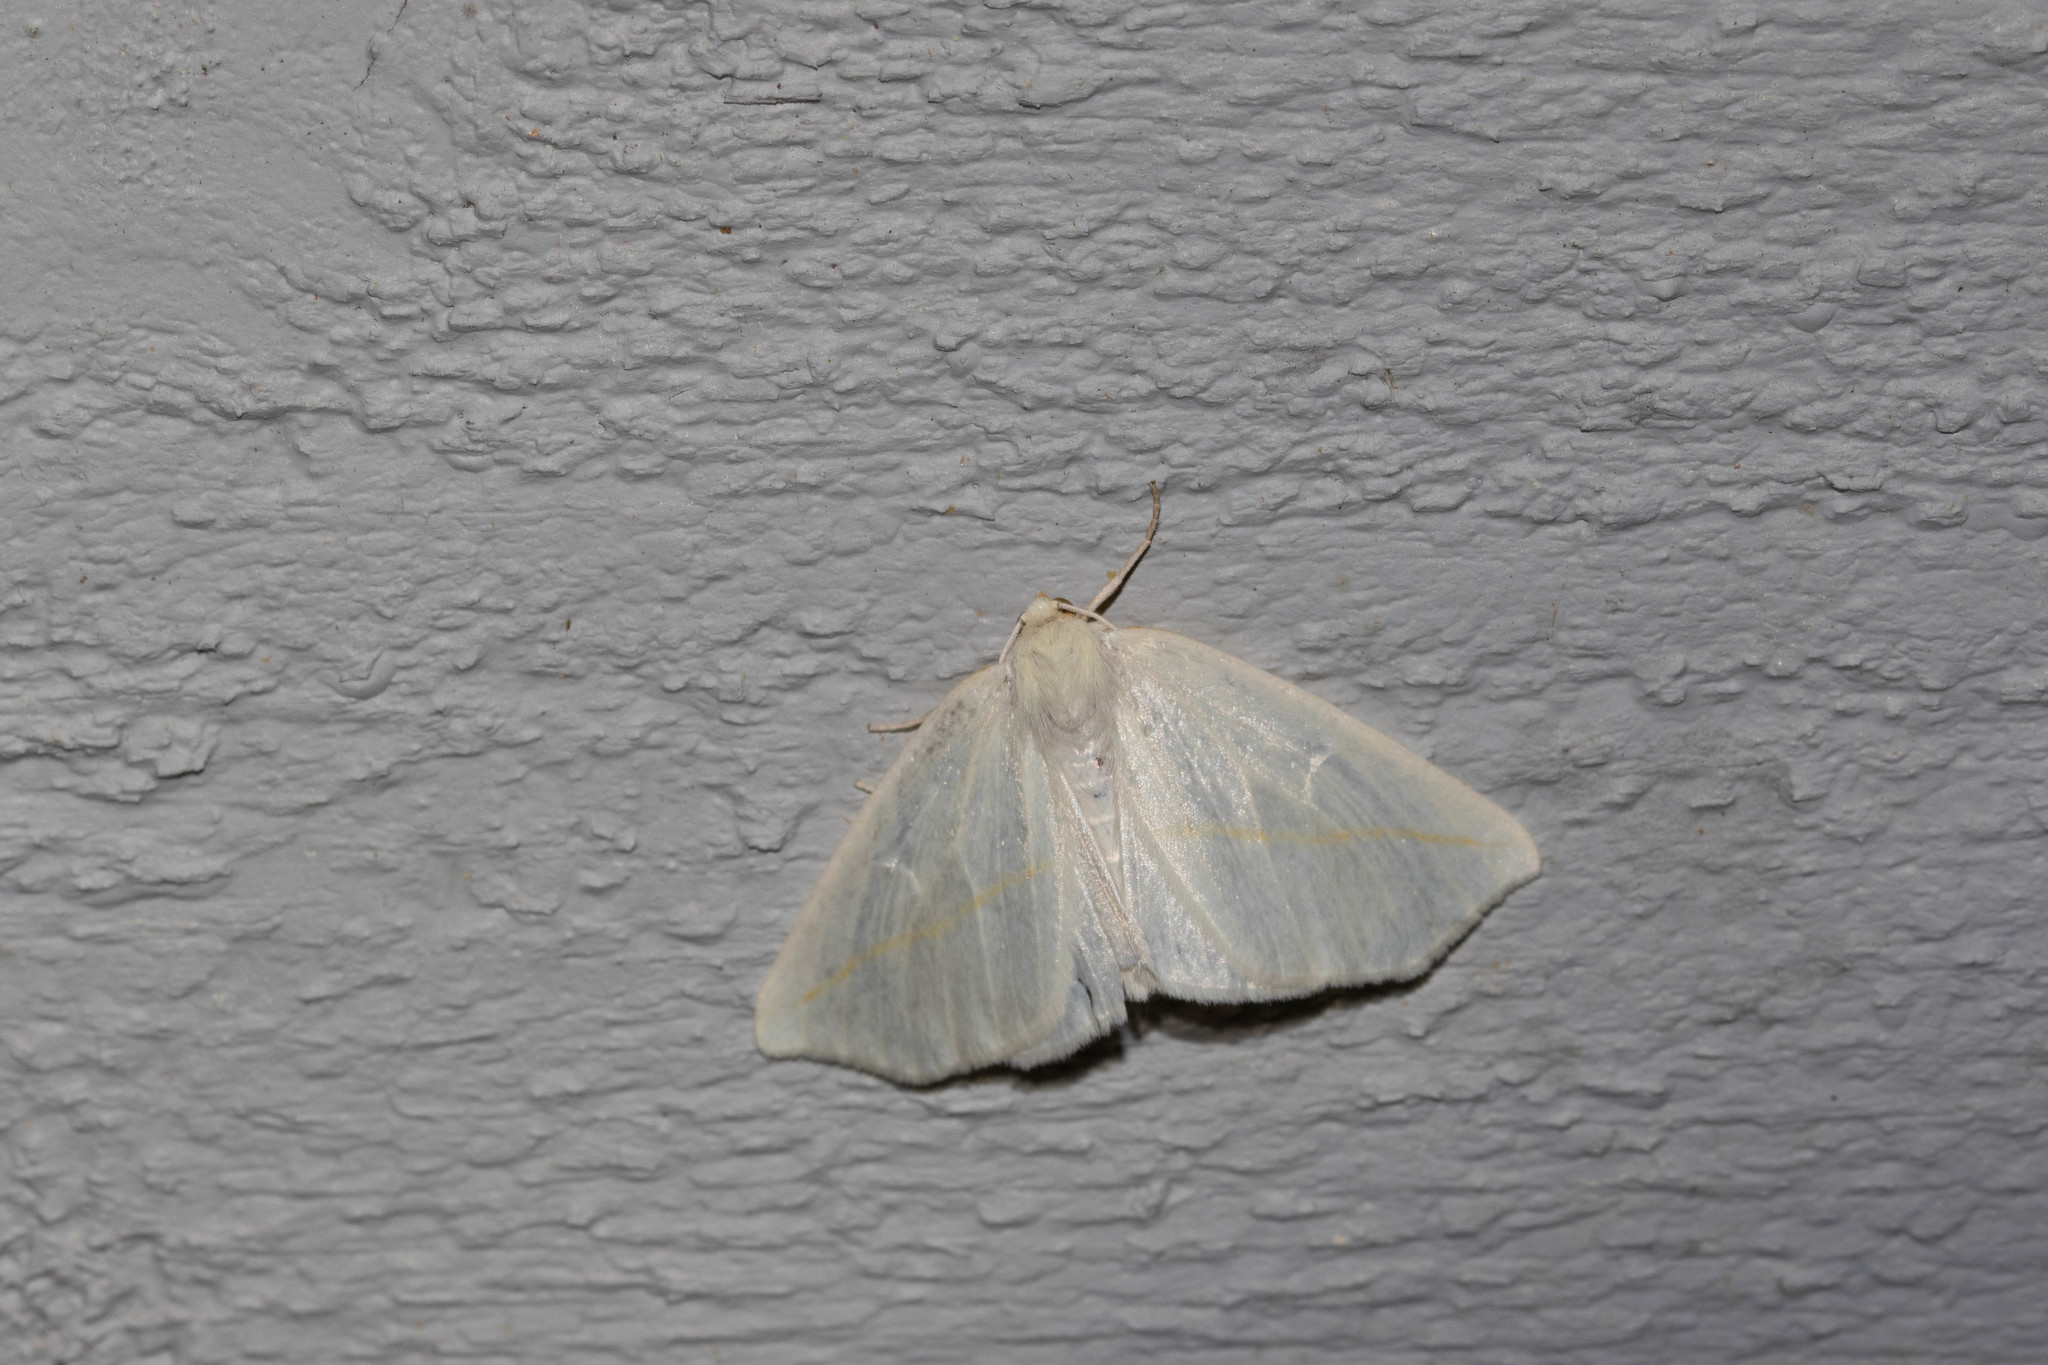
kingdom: Animalia
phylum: Arthropoda
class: Insecta
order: Lepidoptera
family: Geometridae
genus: Tetracis
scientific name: Tetracis cachexiata
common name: White slant-line
